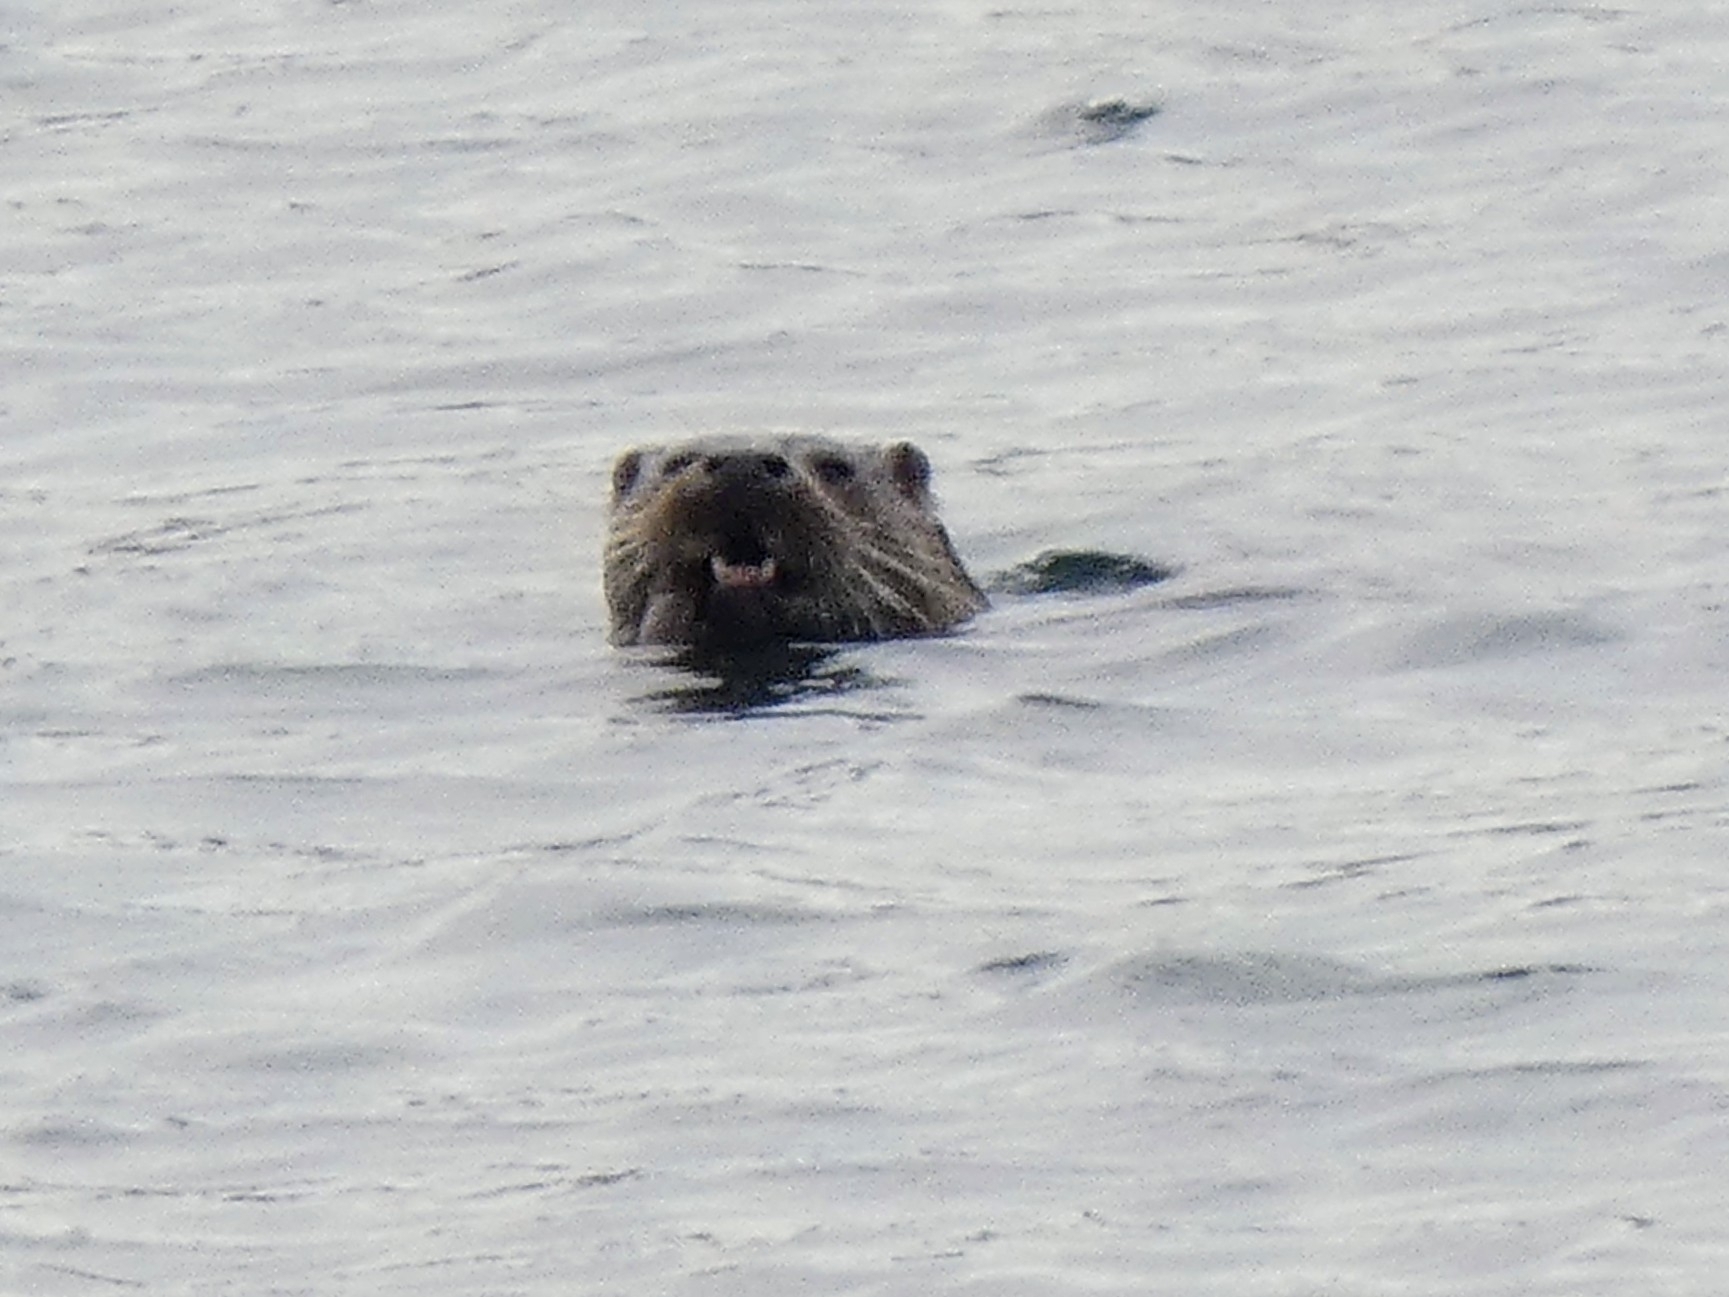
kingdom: Animalia
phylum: Chordata
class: Mammalia
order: Carnivora
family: Mustelidae
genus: Lutra
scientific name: Lutra lutra
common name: European otter
